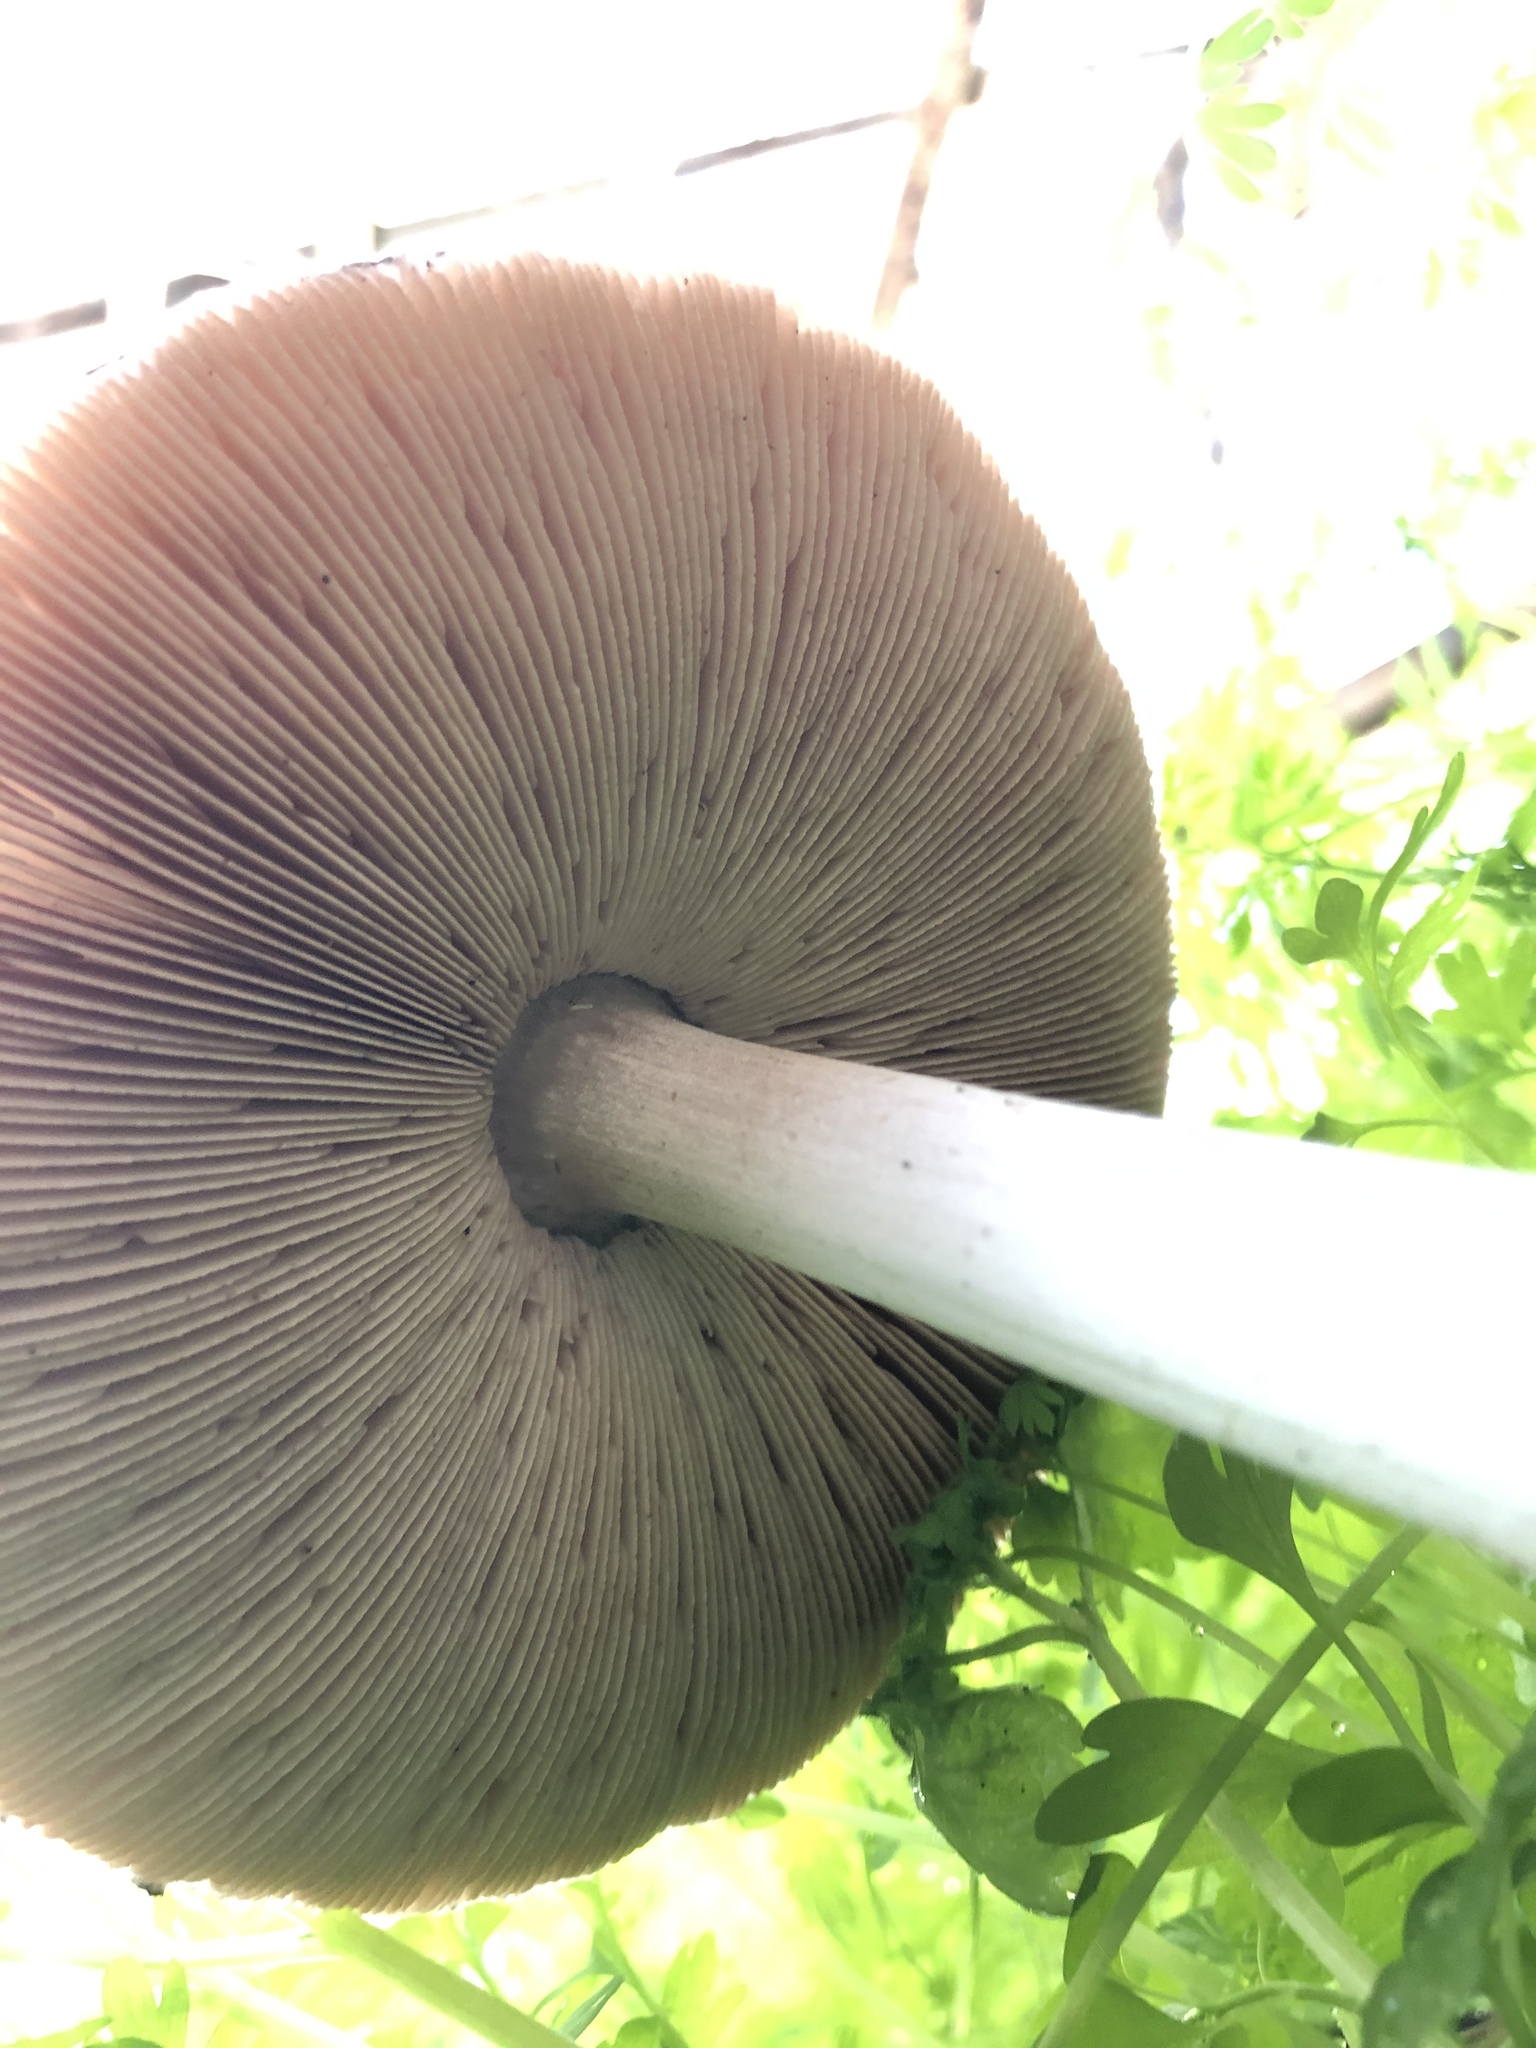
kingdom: Fungi
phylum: Basidiomycota
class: Agaricomycetes
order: Agaricales
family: Pluteaceae
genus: Volvopluteus
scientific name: Volvopluteus gloiocephalus
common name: Stubble rosegill
